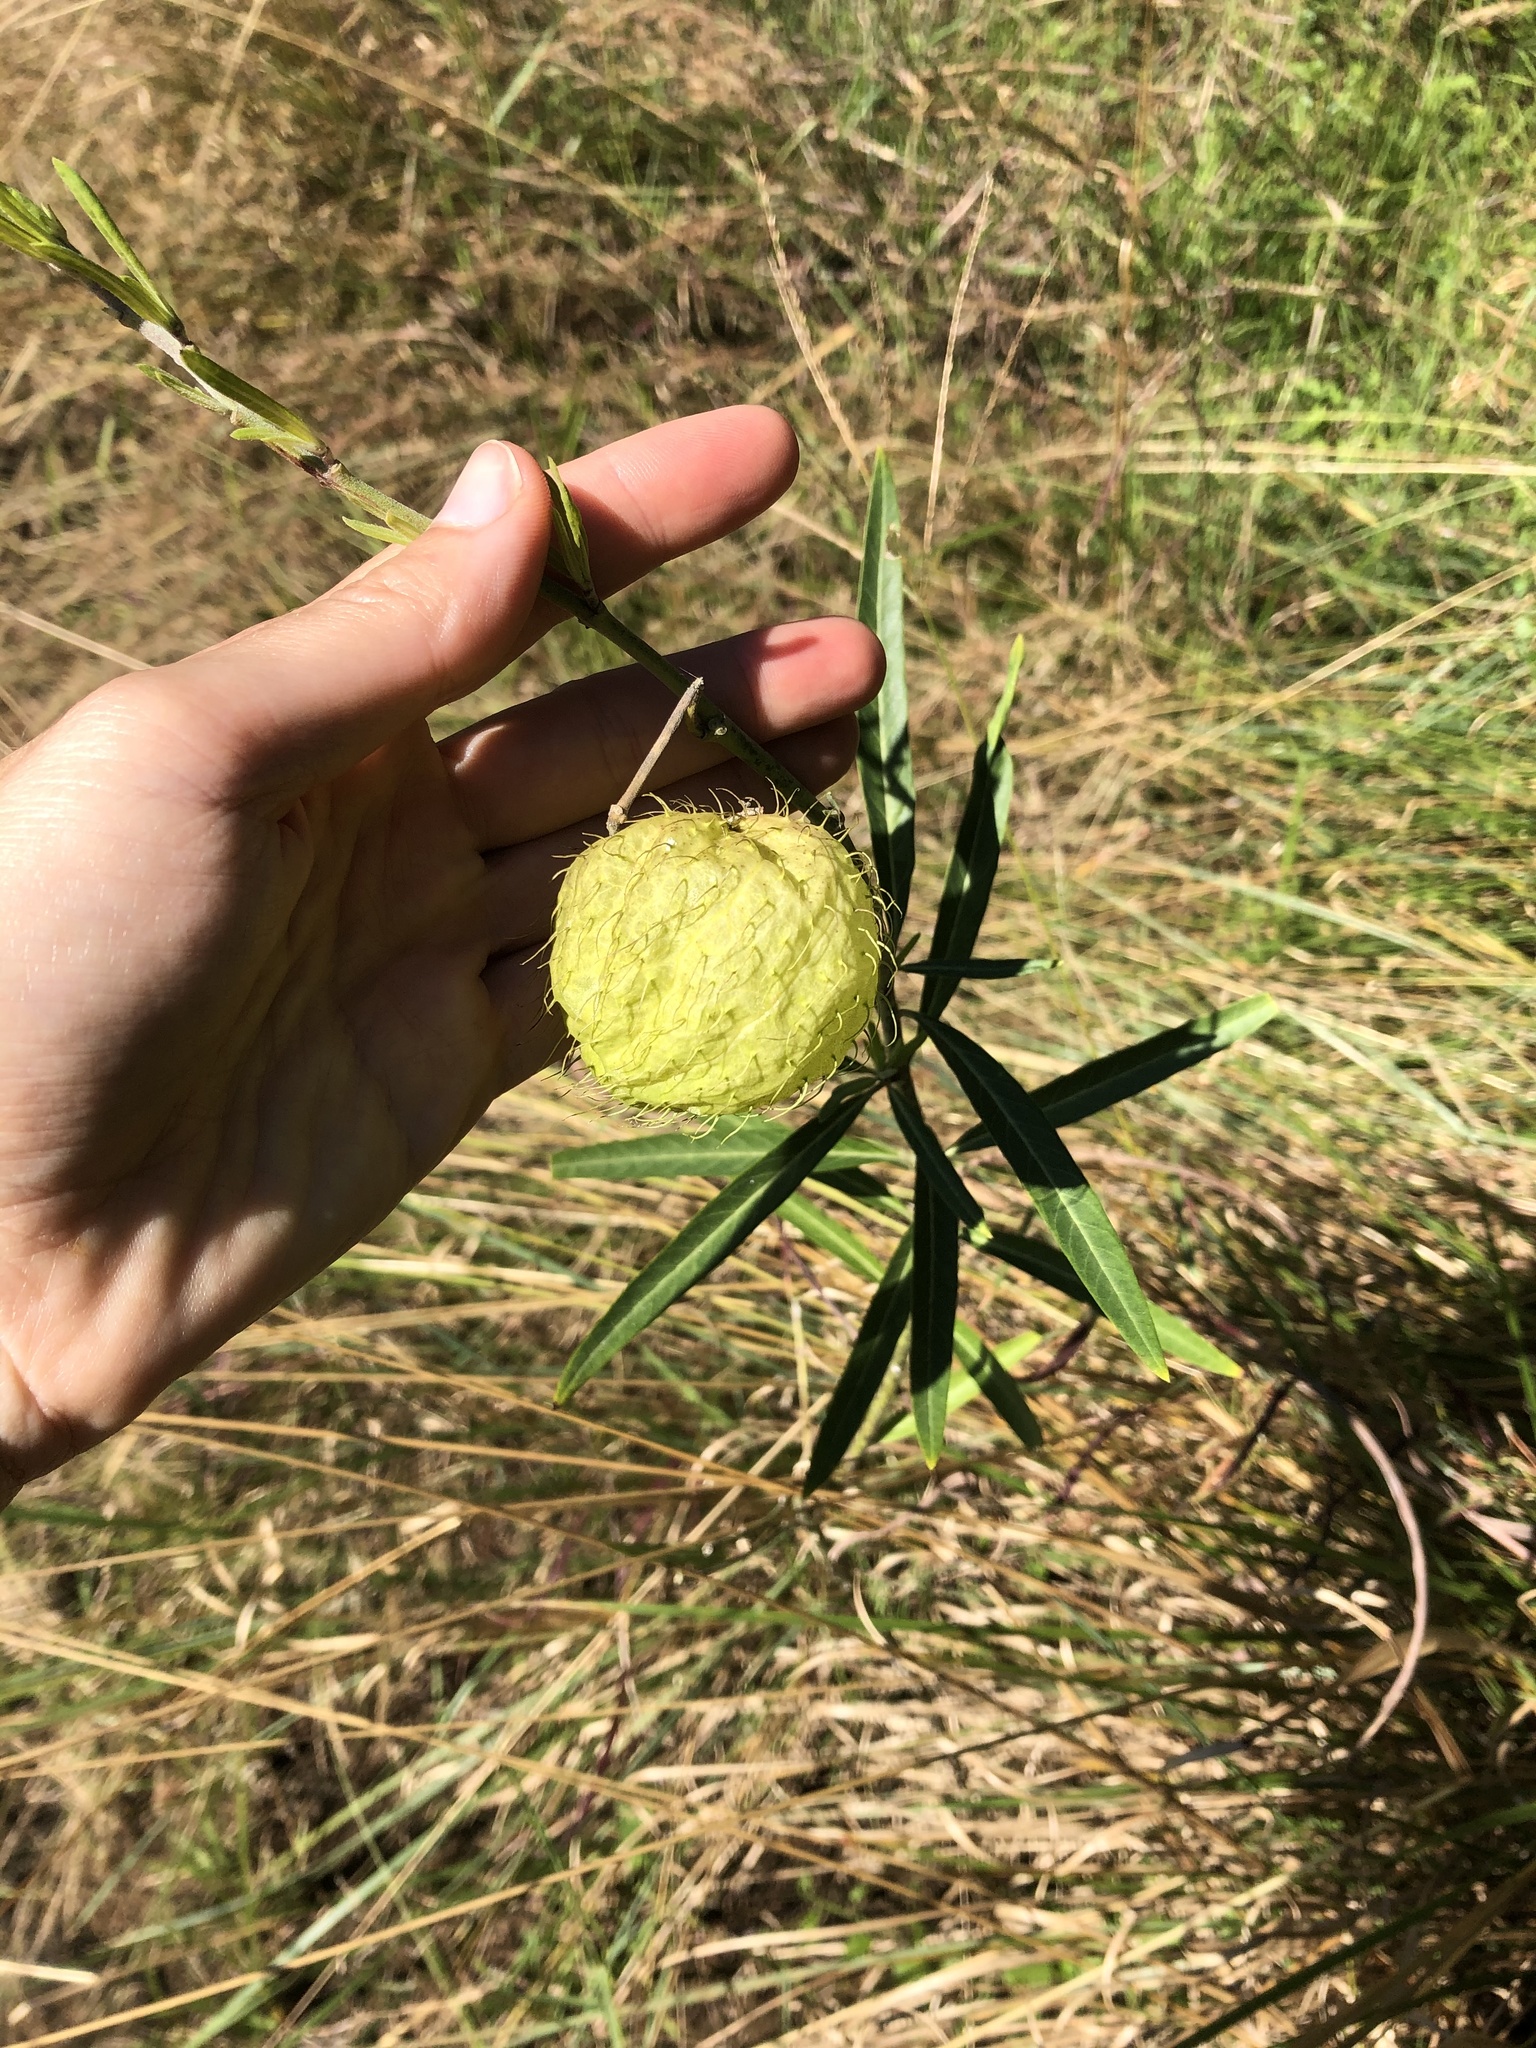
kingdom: Plantae
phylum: Tracheophyta
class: Magnoliopsida
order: Gentianales
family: Apocynaceae
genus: Gomphocarpus
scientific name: Gomphocarpus physocarpus
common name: Balloon cotton bush
